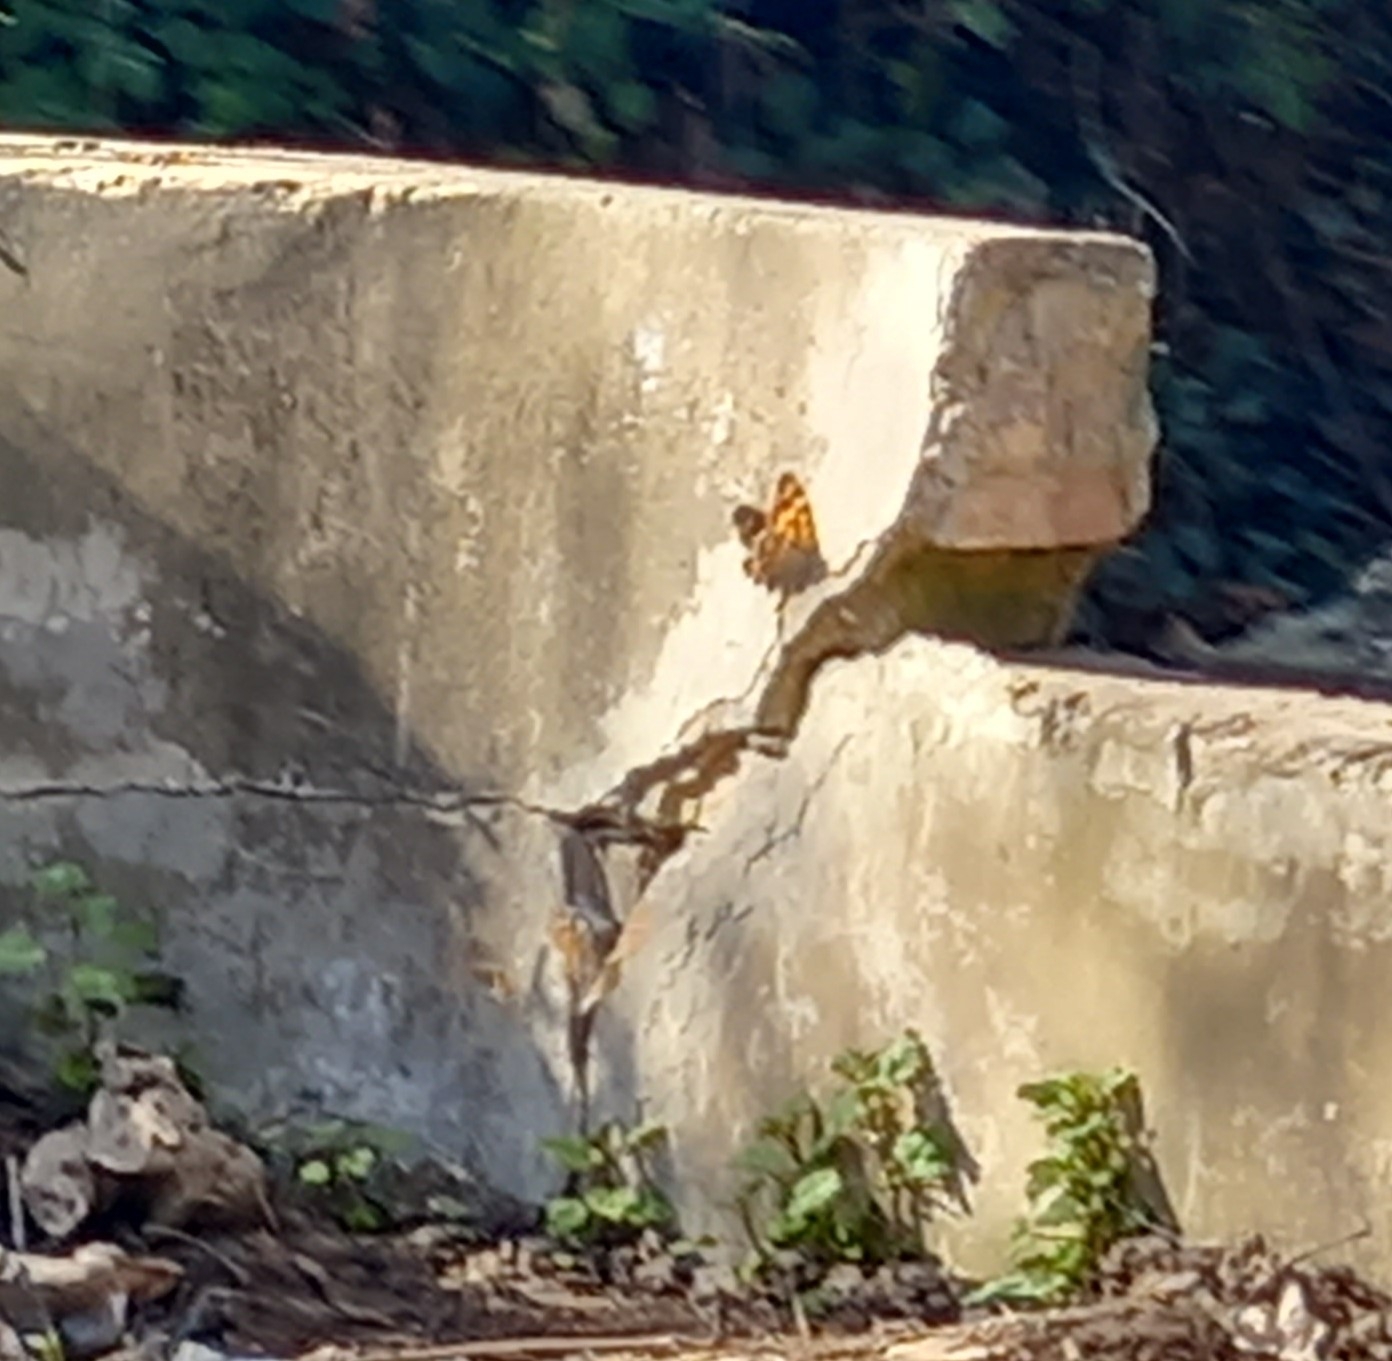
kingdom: Animalia
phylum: Arthropoda
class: Insecta
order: Lepidoptera
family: Nymphalidae
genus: Pararge
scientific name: Pararge aegeria
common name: Speckled wood
